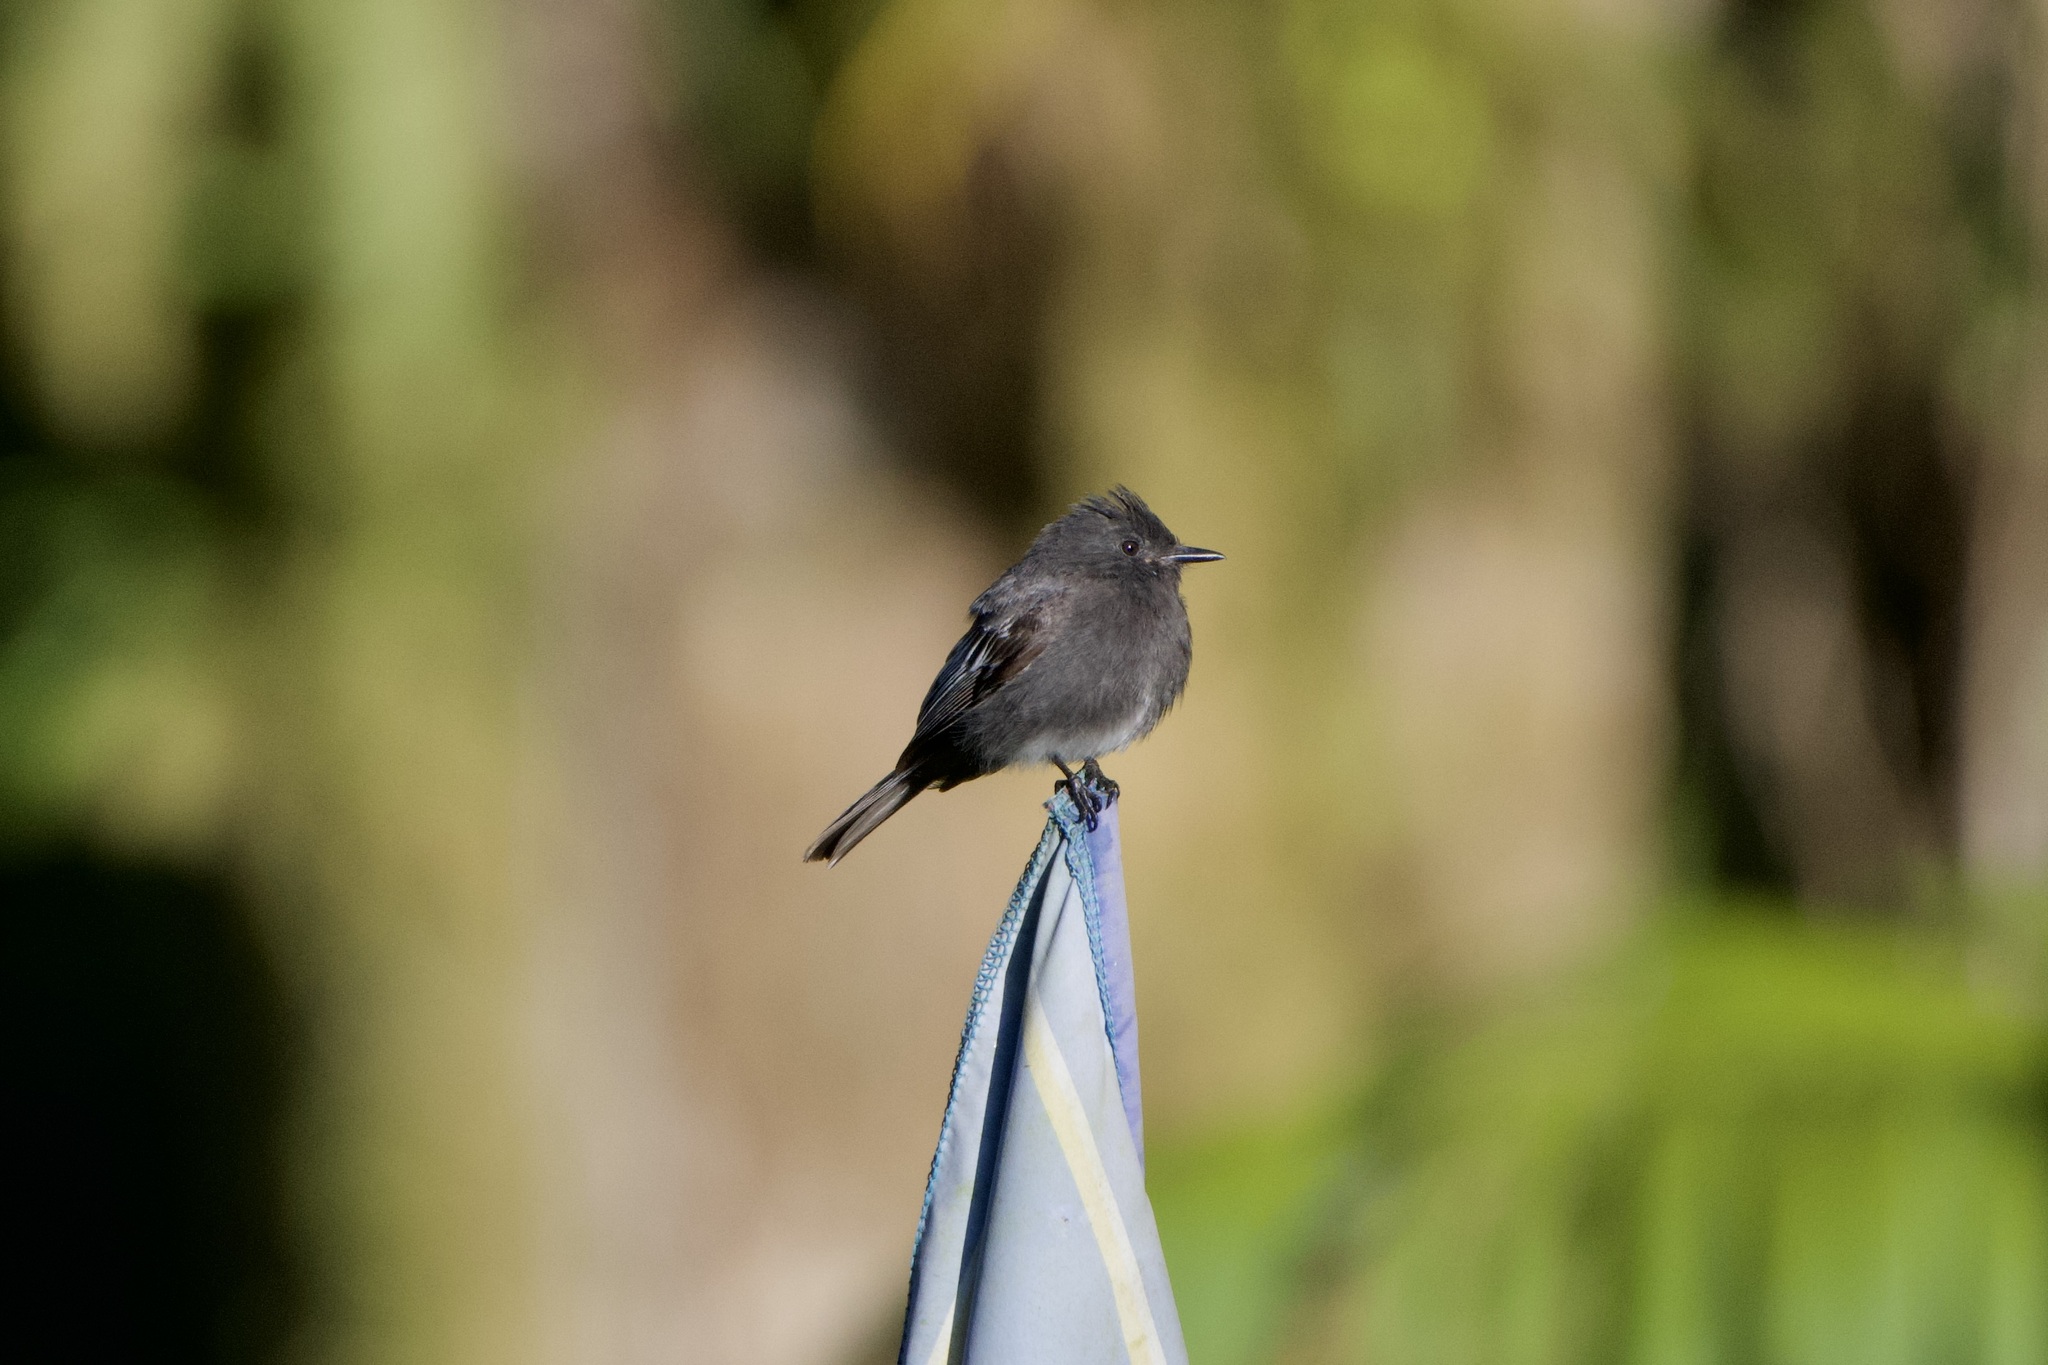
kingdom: Animalia
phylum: Chordata
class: Aves
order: Passeriformes
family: Tyrannidae
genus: Sayornis
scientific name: Sayornis nigricans
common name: Black phoebe
